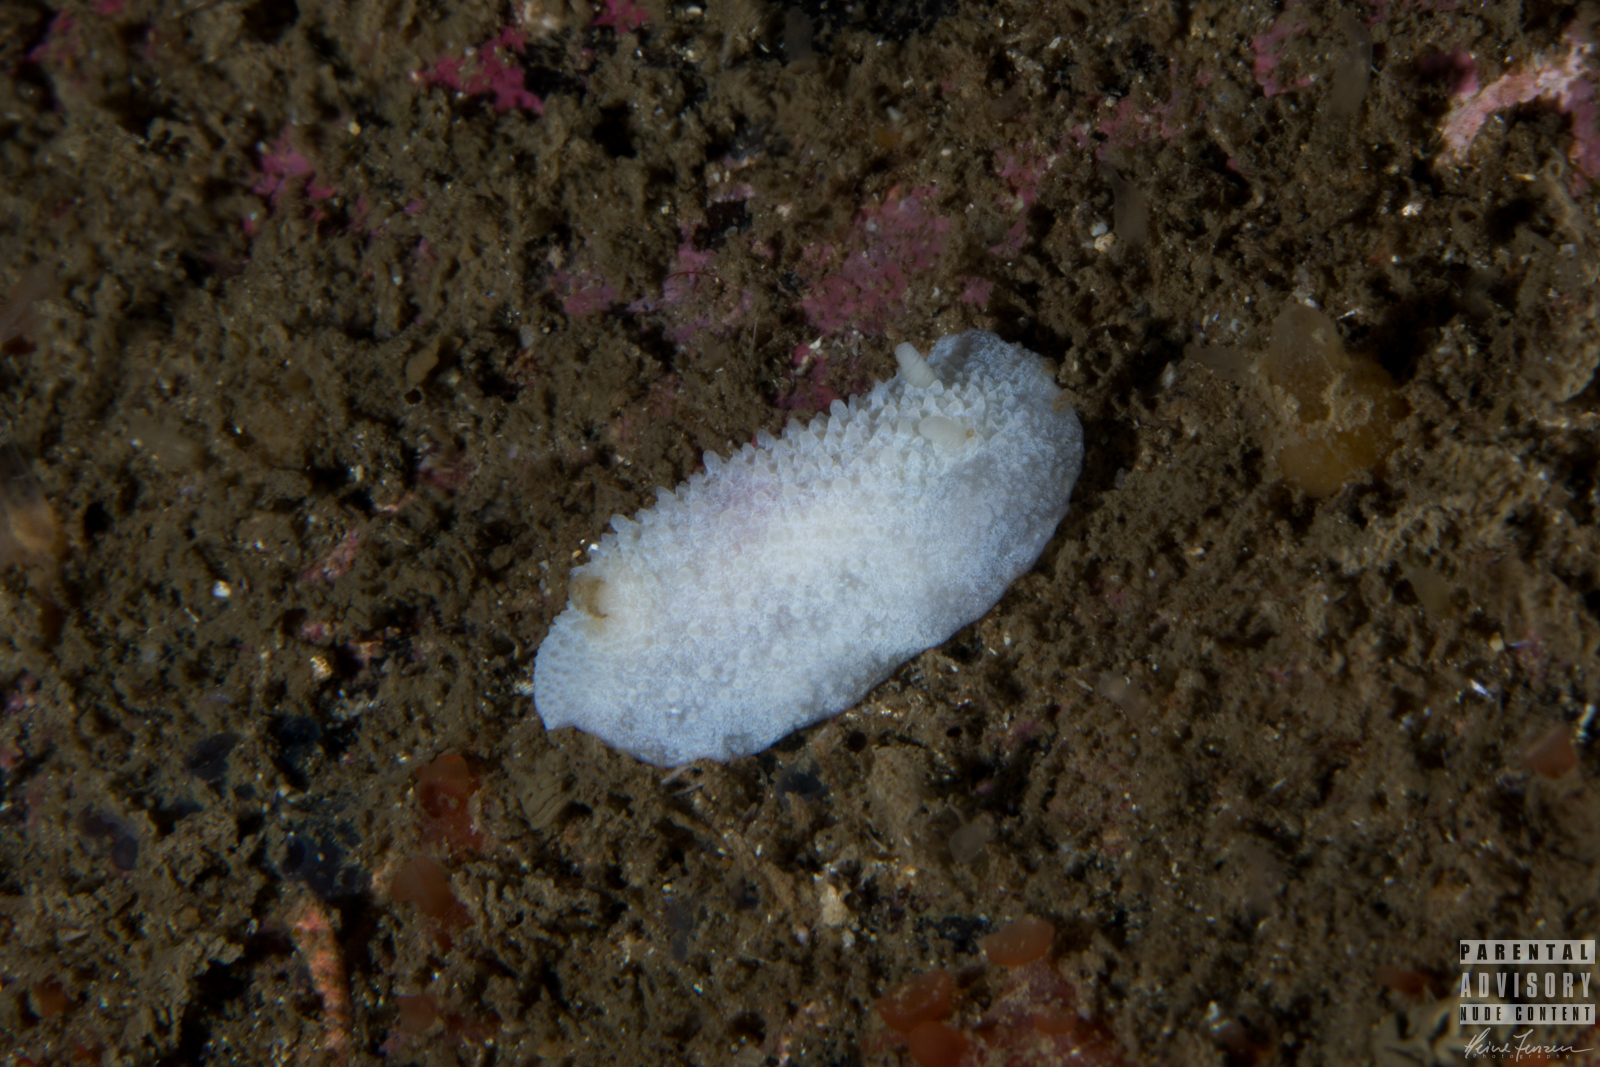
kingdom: Animalia
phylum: Mollusca
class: Gastropoda
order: Nudibranchia
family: Cadlinidae
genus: Aldisa
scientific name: Aldisa zetlandica
